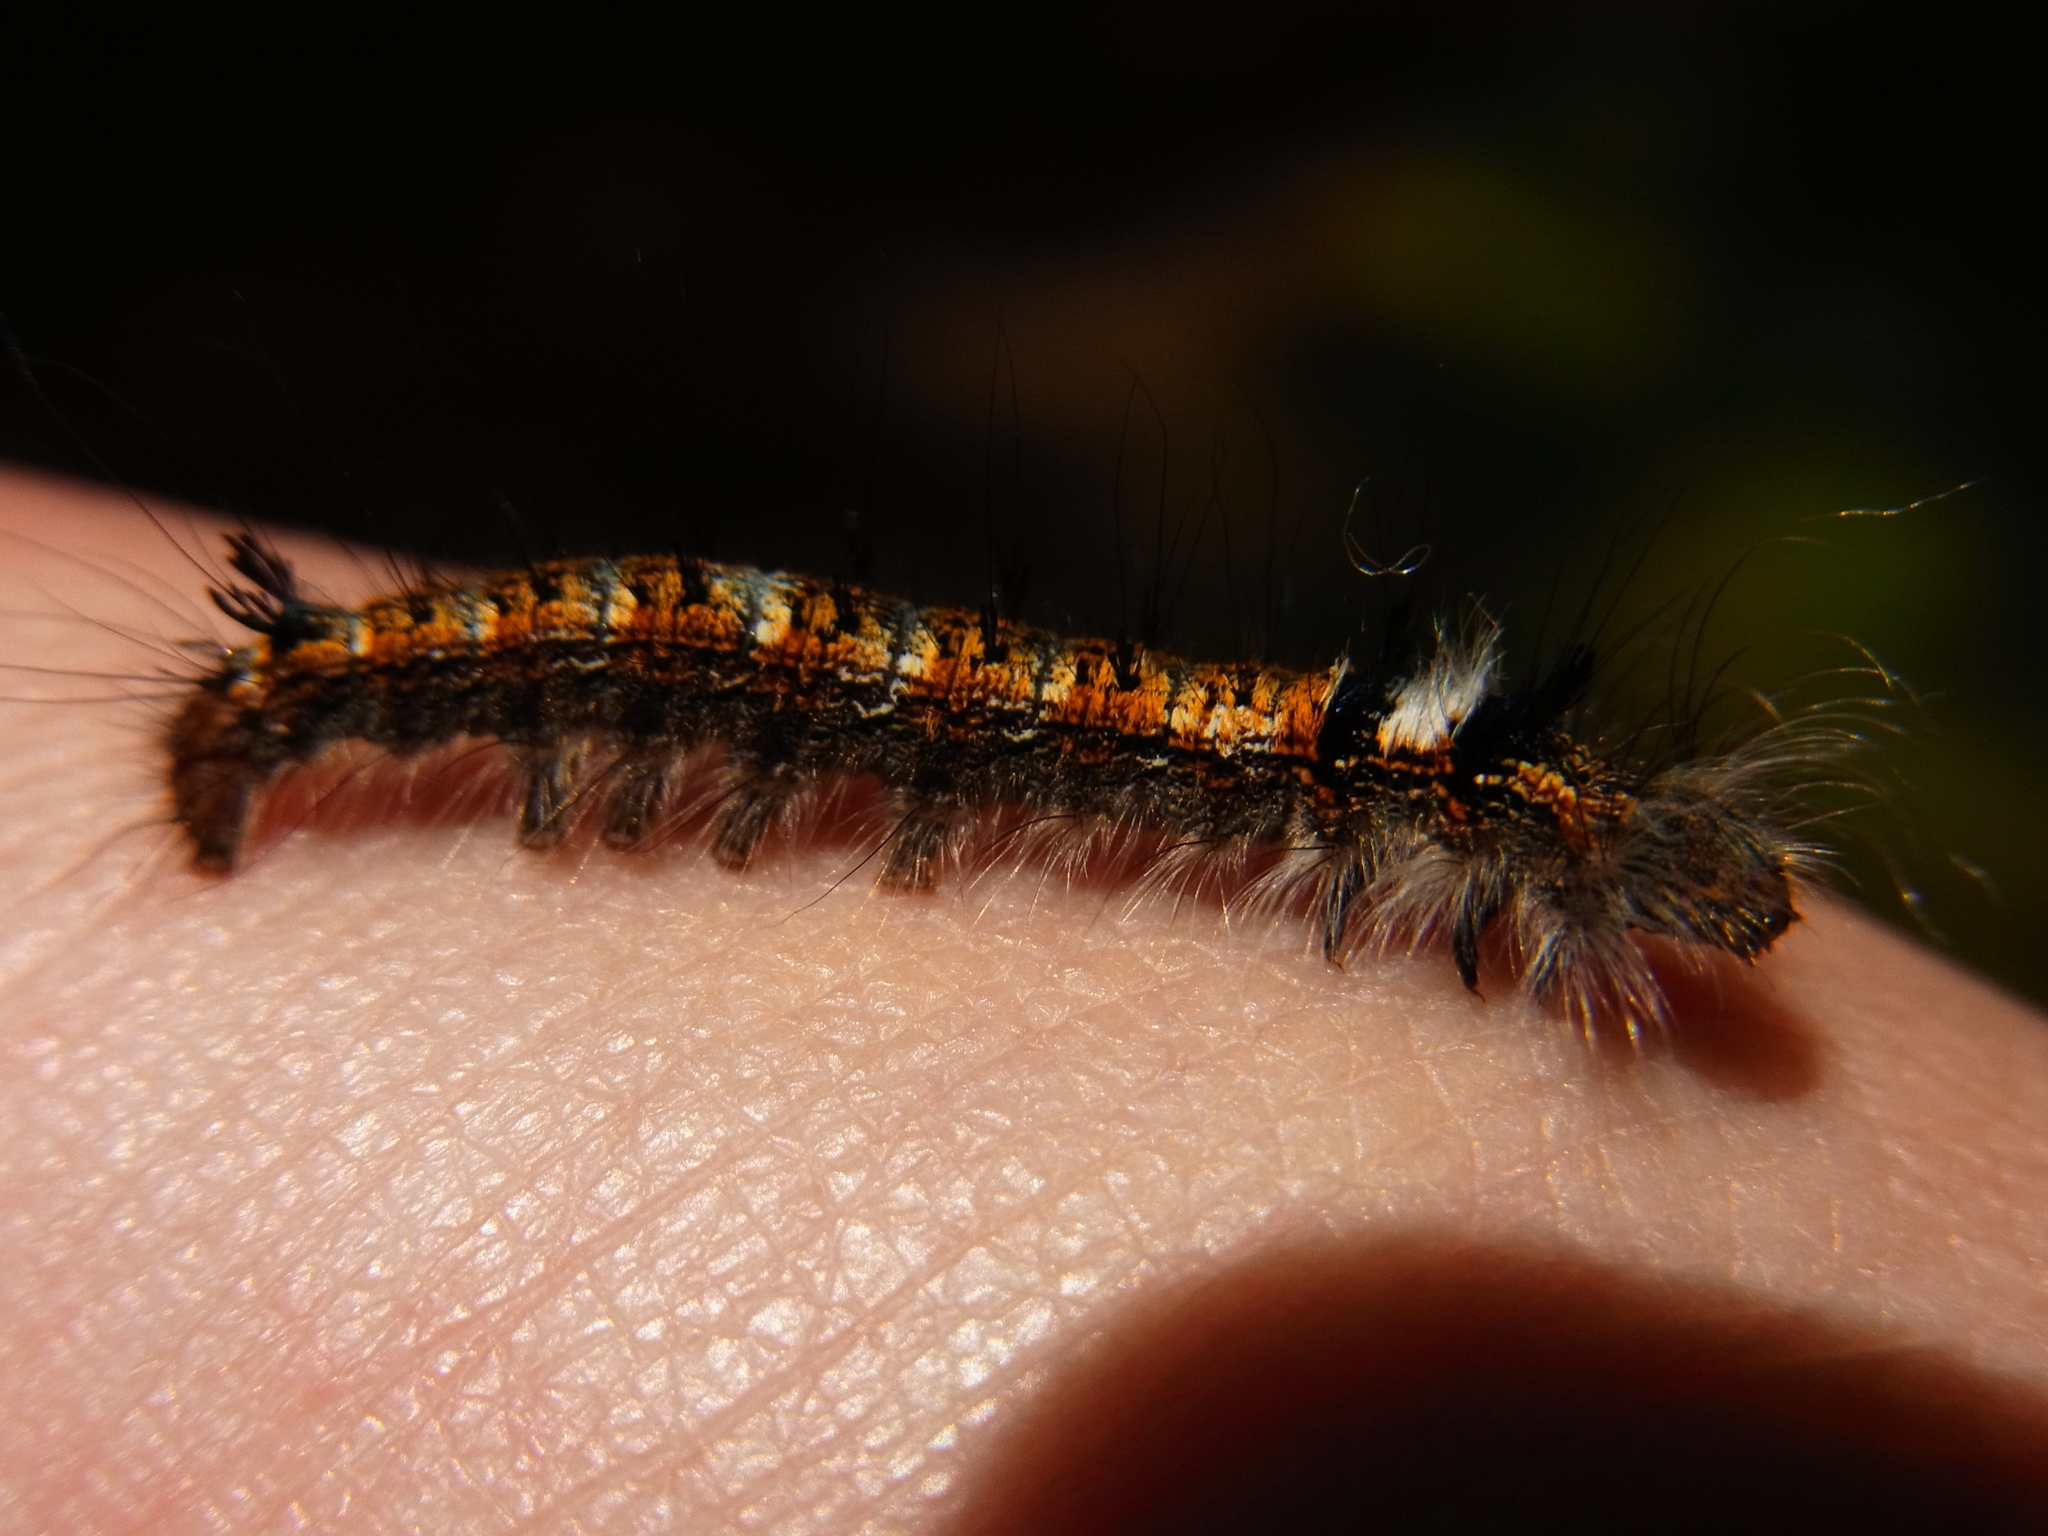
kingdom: Animalia
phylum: Arthropoda
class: Insecta
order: Lepidoptera
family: Lasiocampidae
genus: Dendrolimus
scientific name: Dendrolimus spectabilis
